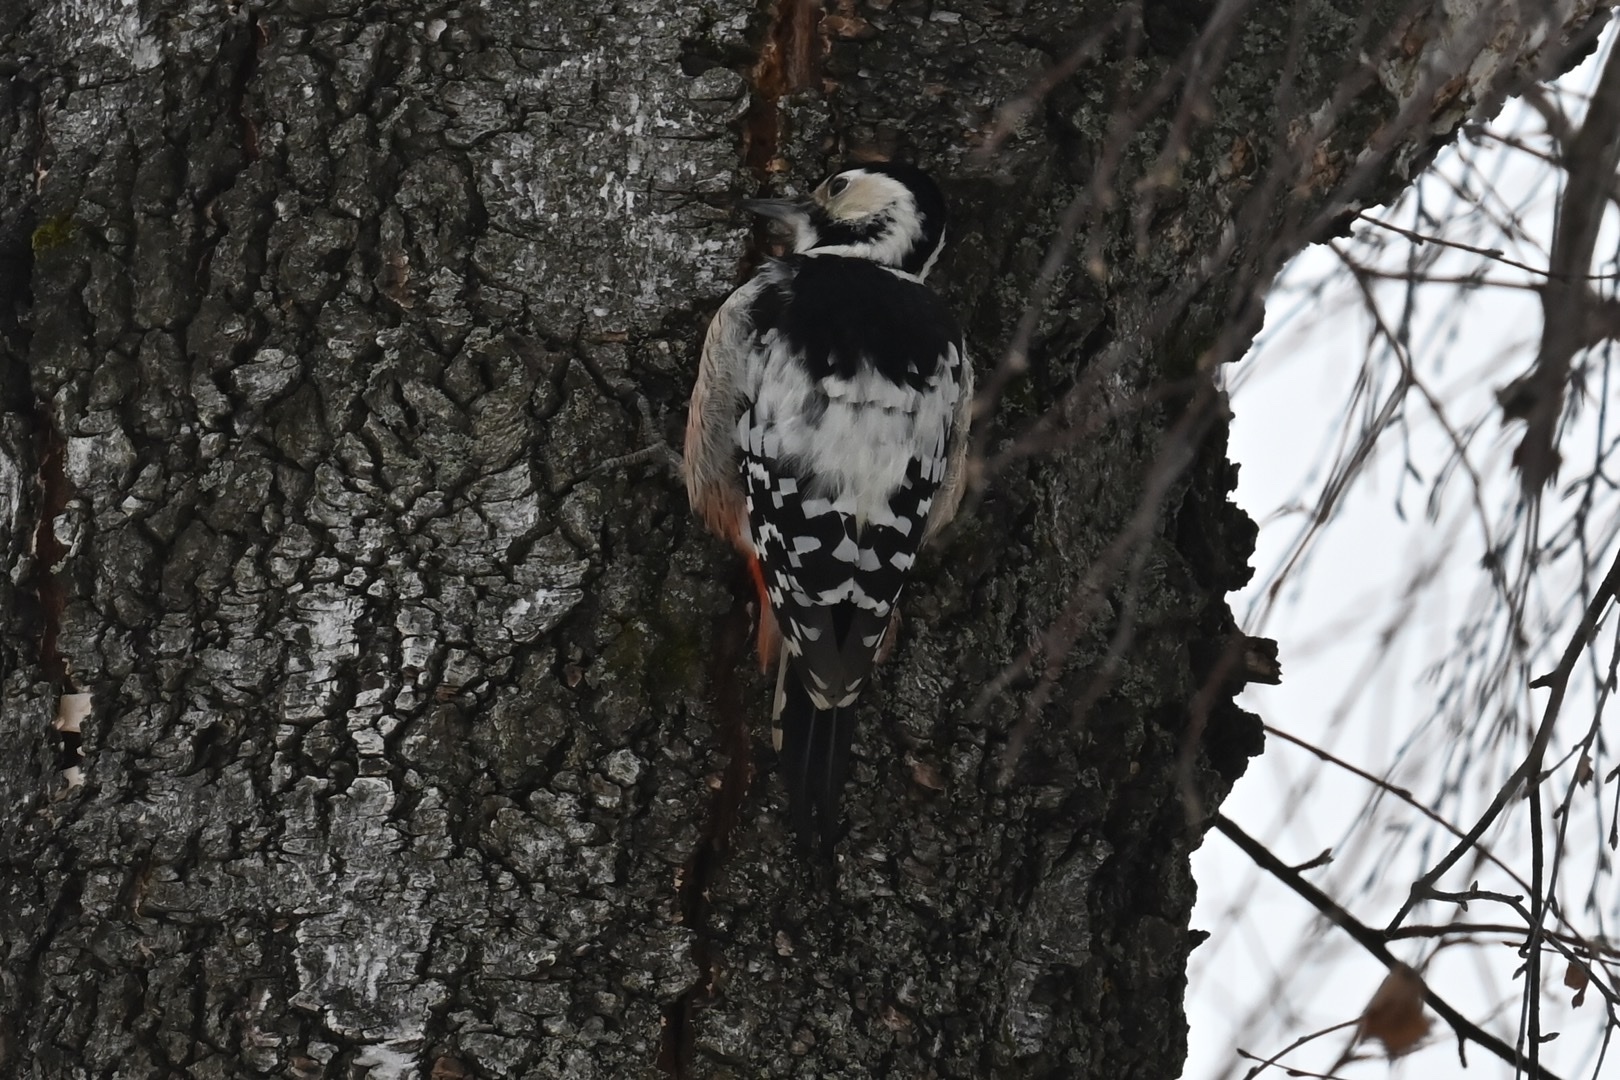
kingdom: Animalia
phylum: Chordata
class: Aves
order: Piciformes
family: Picidae
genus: Dendrocopos
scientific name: Dendrocopos leucotos
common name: White-backed woodpecker
